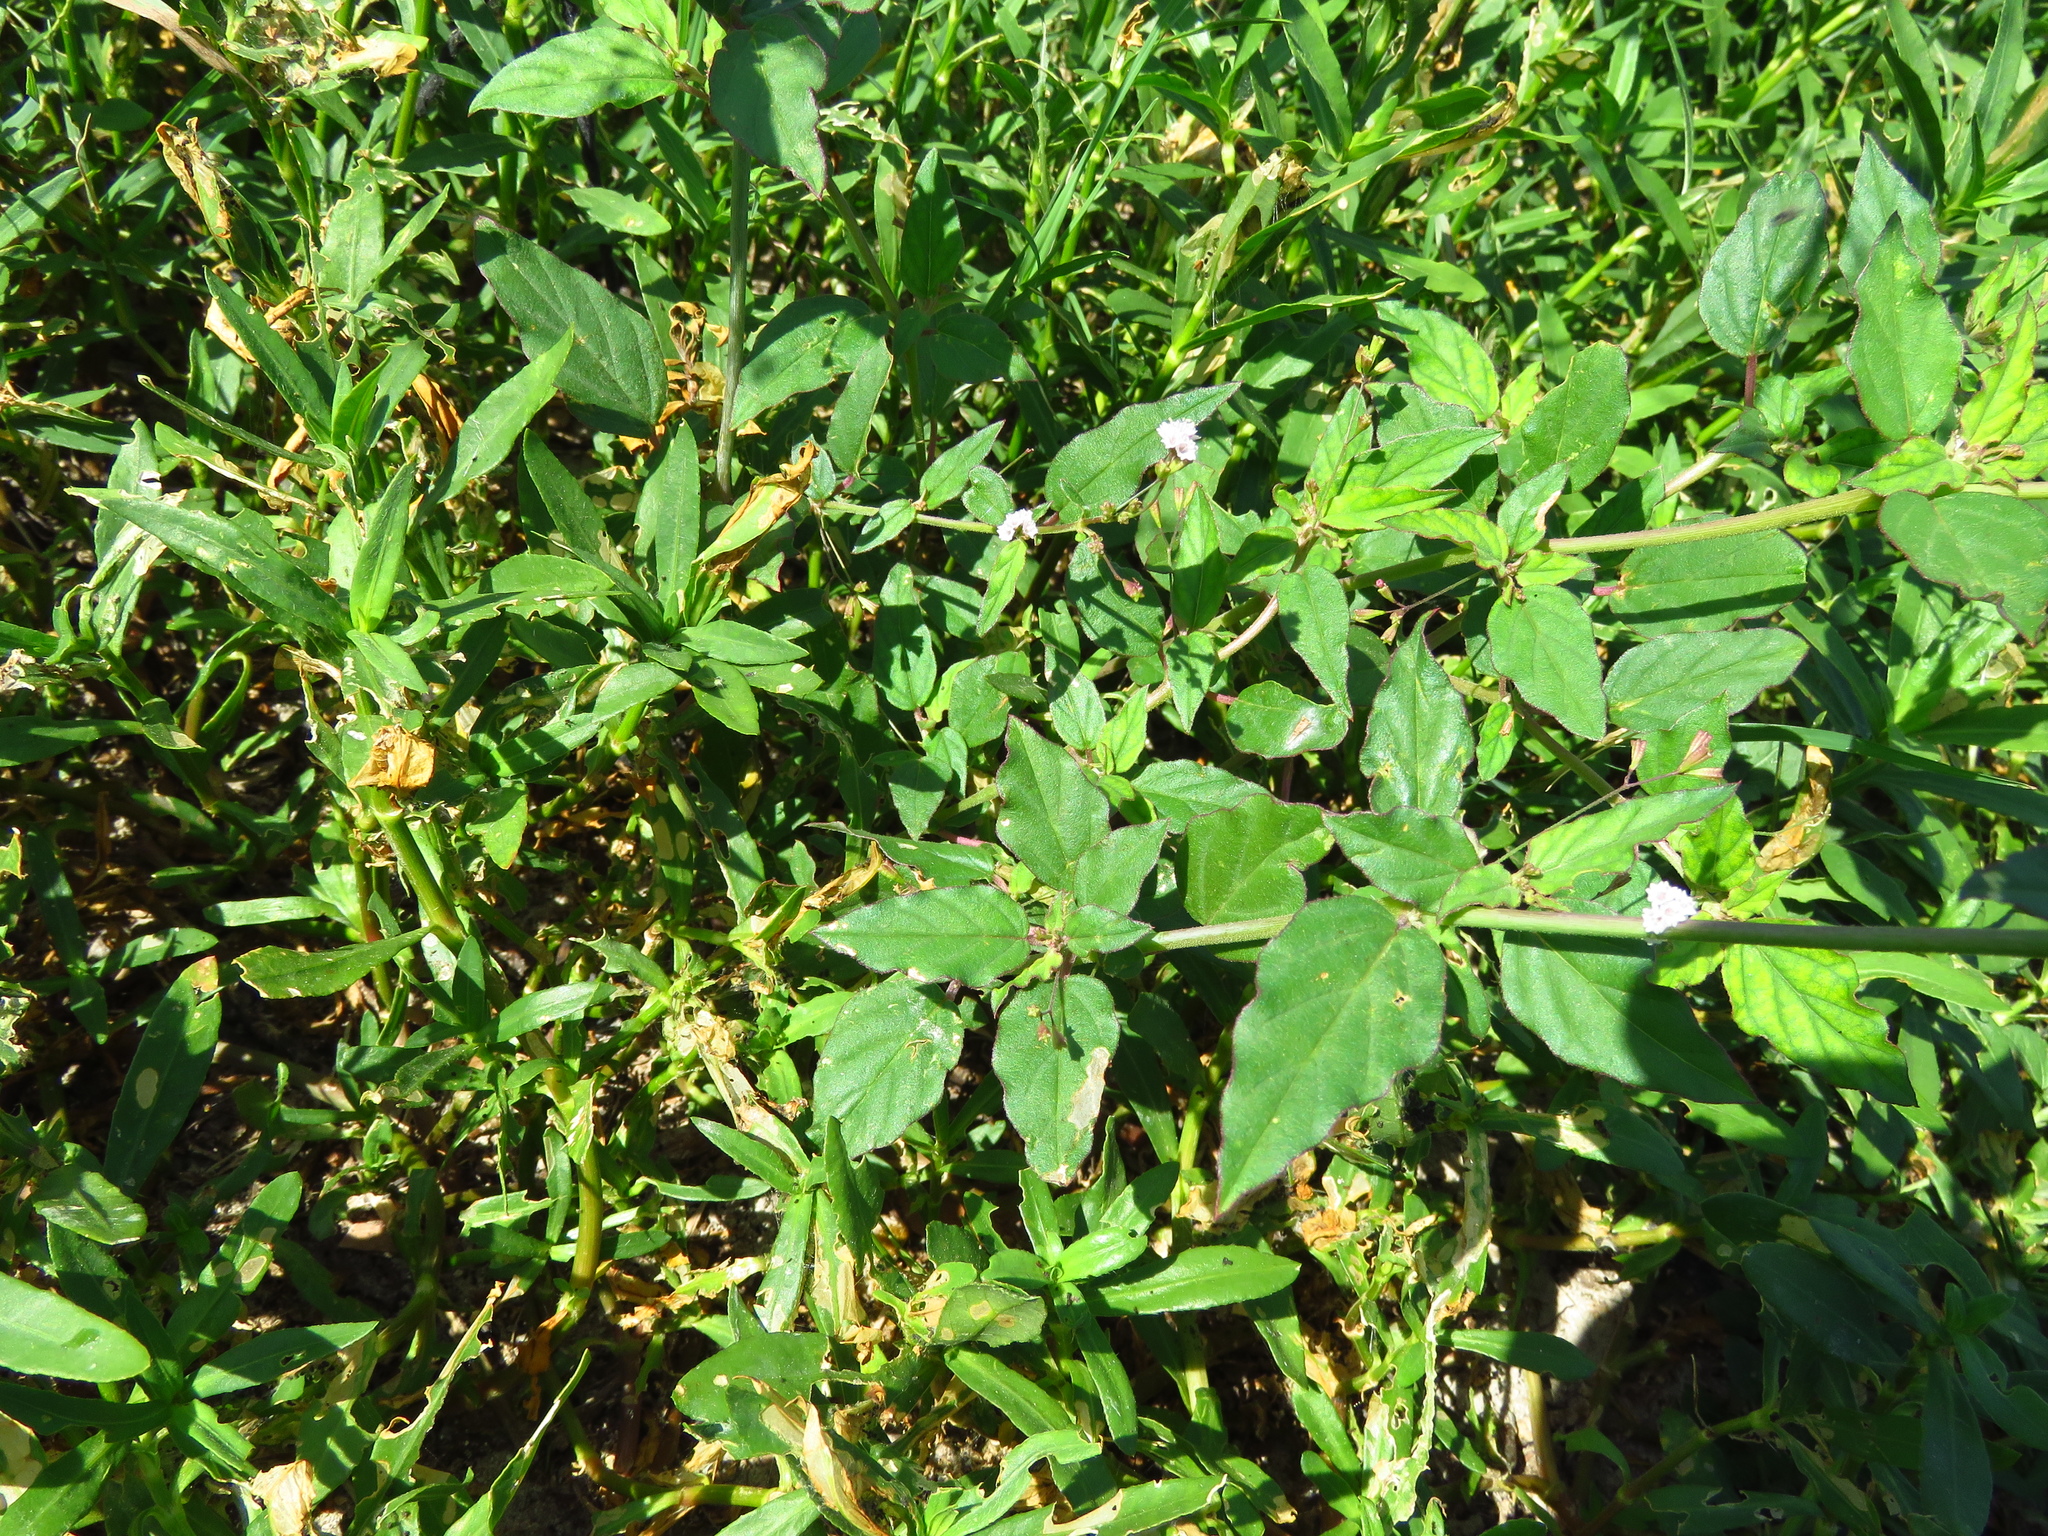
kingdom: Plantae
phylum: Tracheophyta
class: Magnoliopsida
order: Caryophyllales
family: Nyctaginaceae
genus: Boerhavia
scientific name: Boerhavia erecta
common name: Erect spiderling
